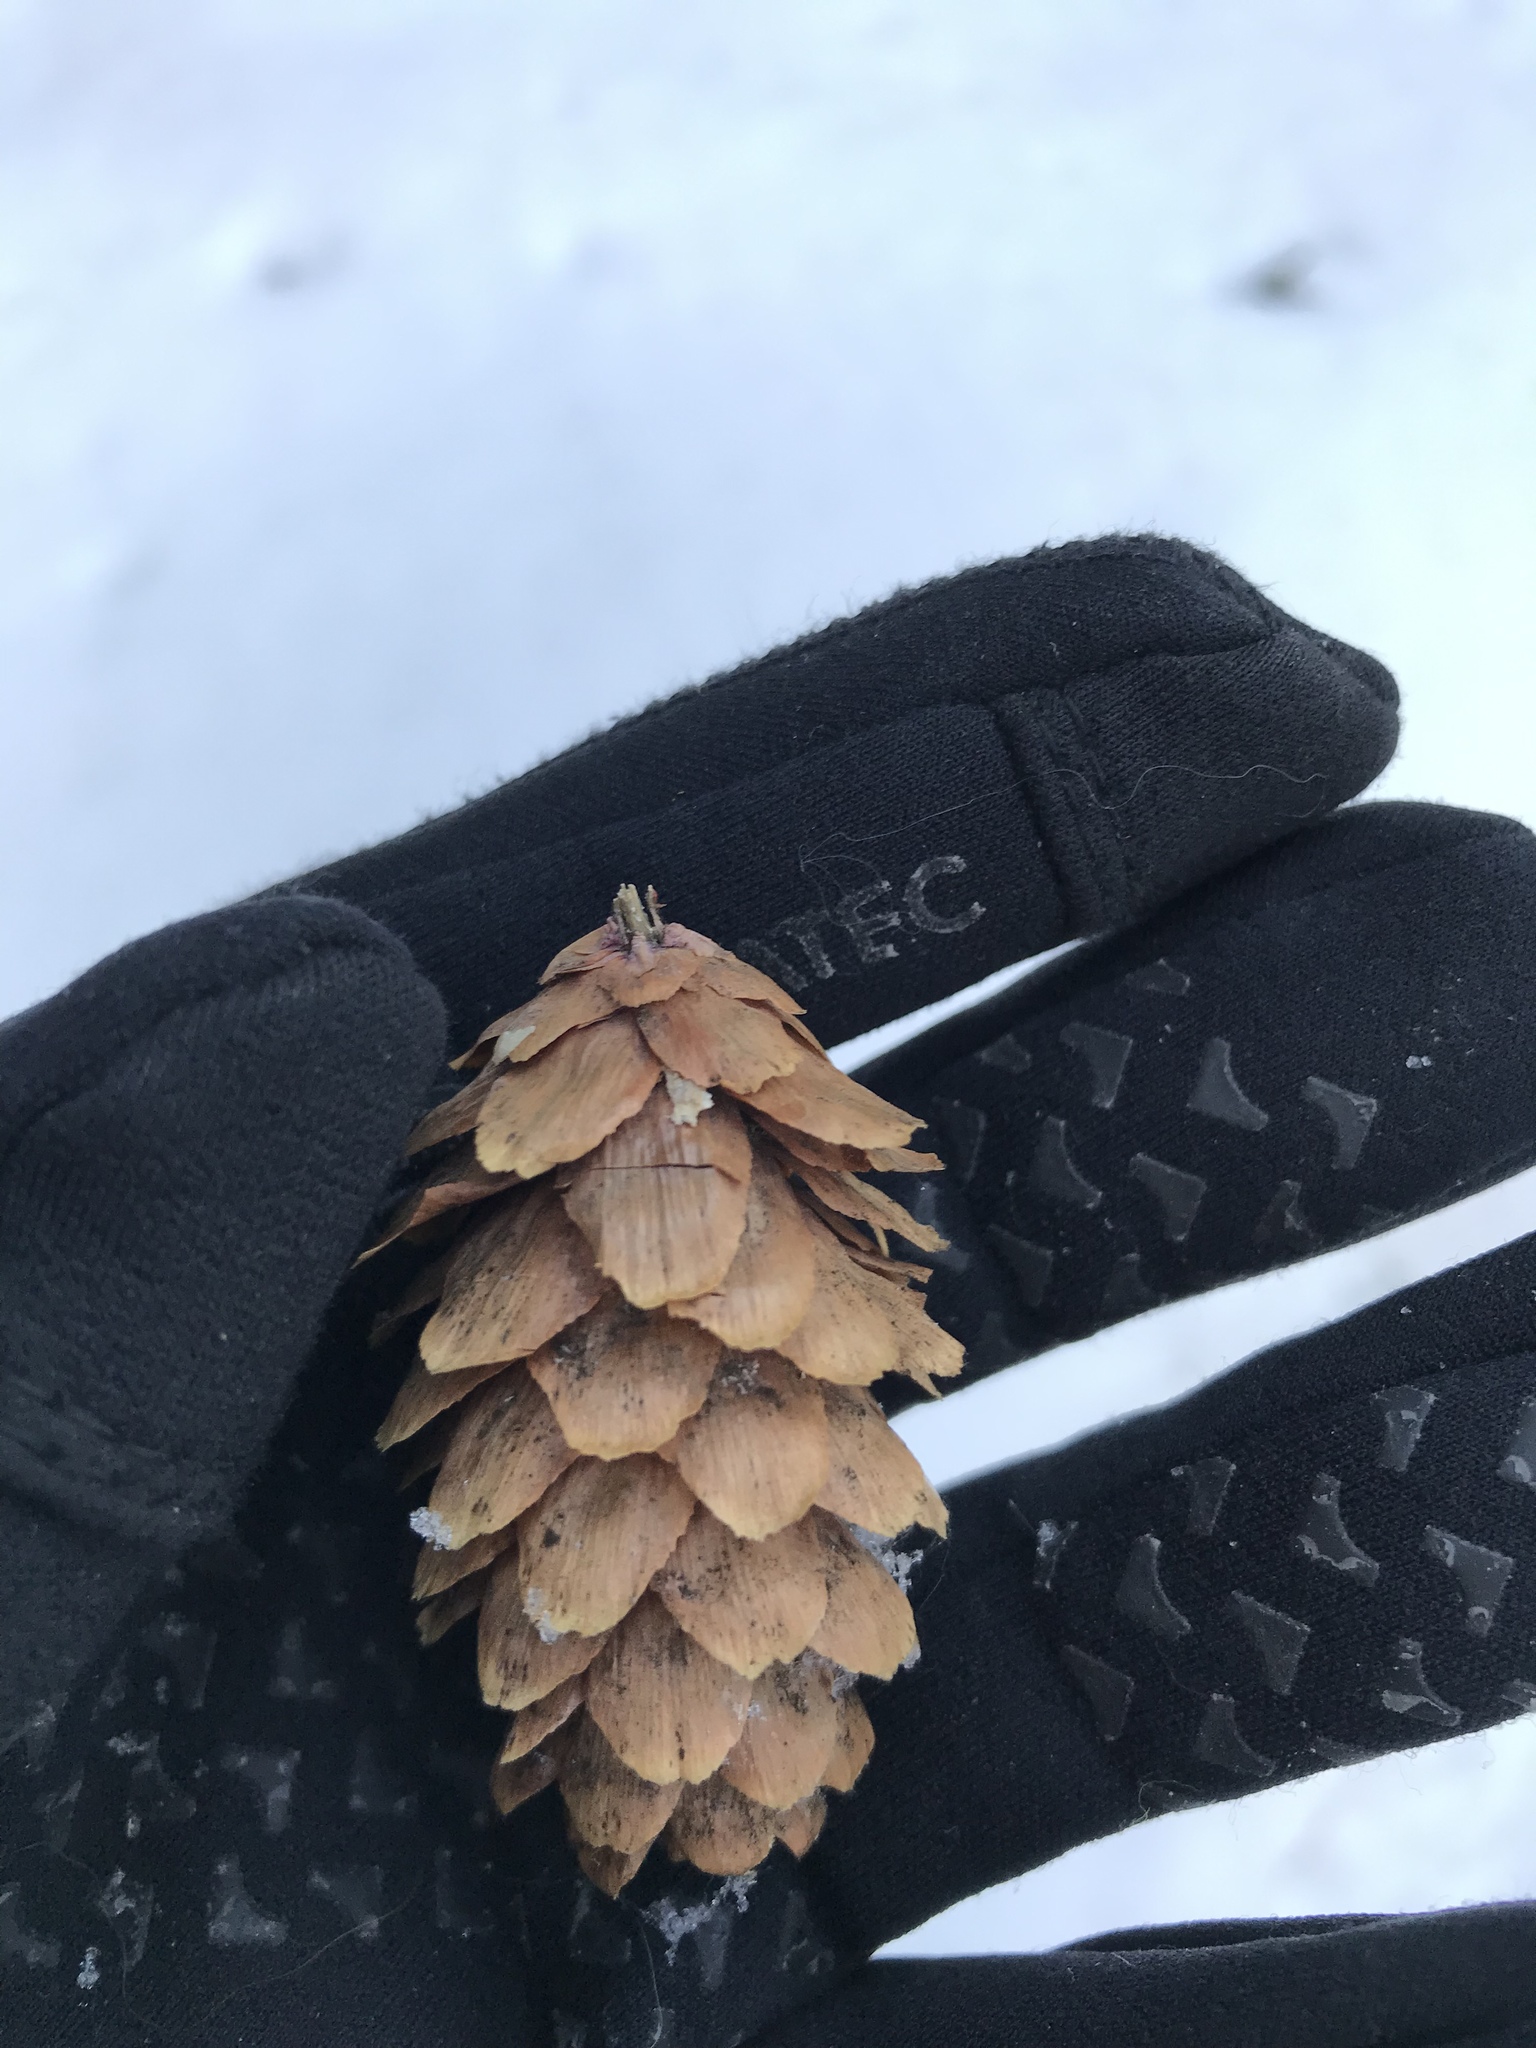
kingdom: Plantae
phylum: Tracheophyta
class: Pinopsida
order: Pinales
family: Pinaceae
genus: Picea
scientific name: Picea engelmannii
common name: Engelmann spruce
